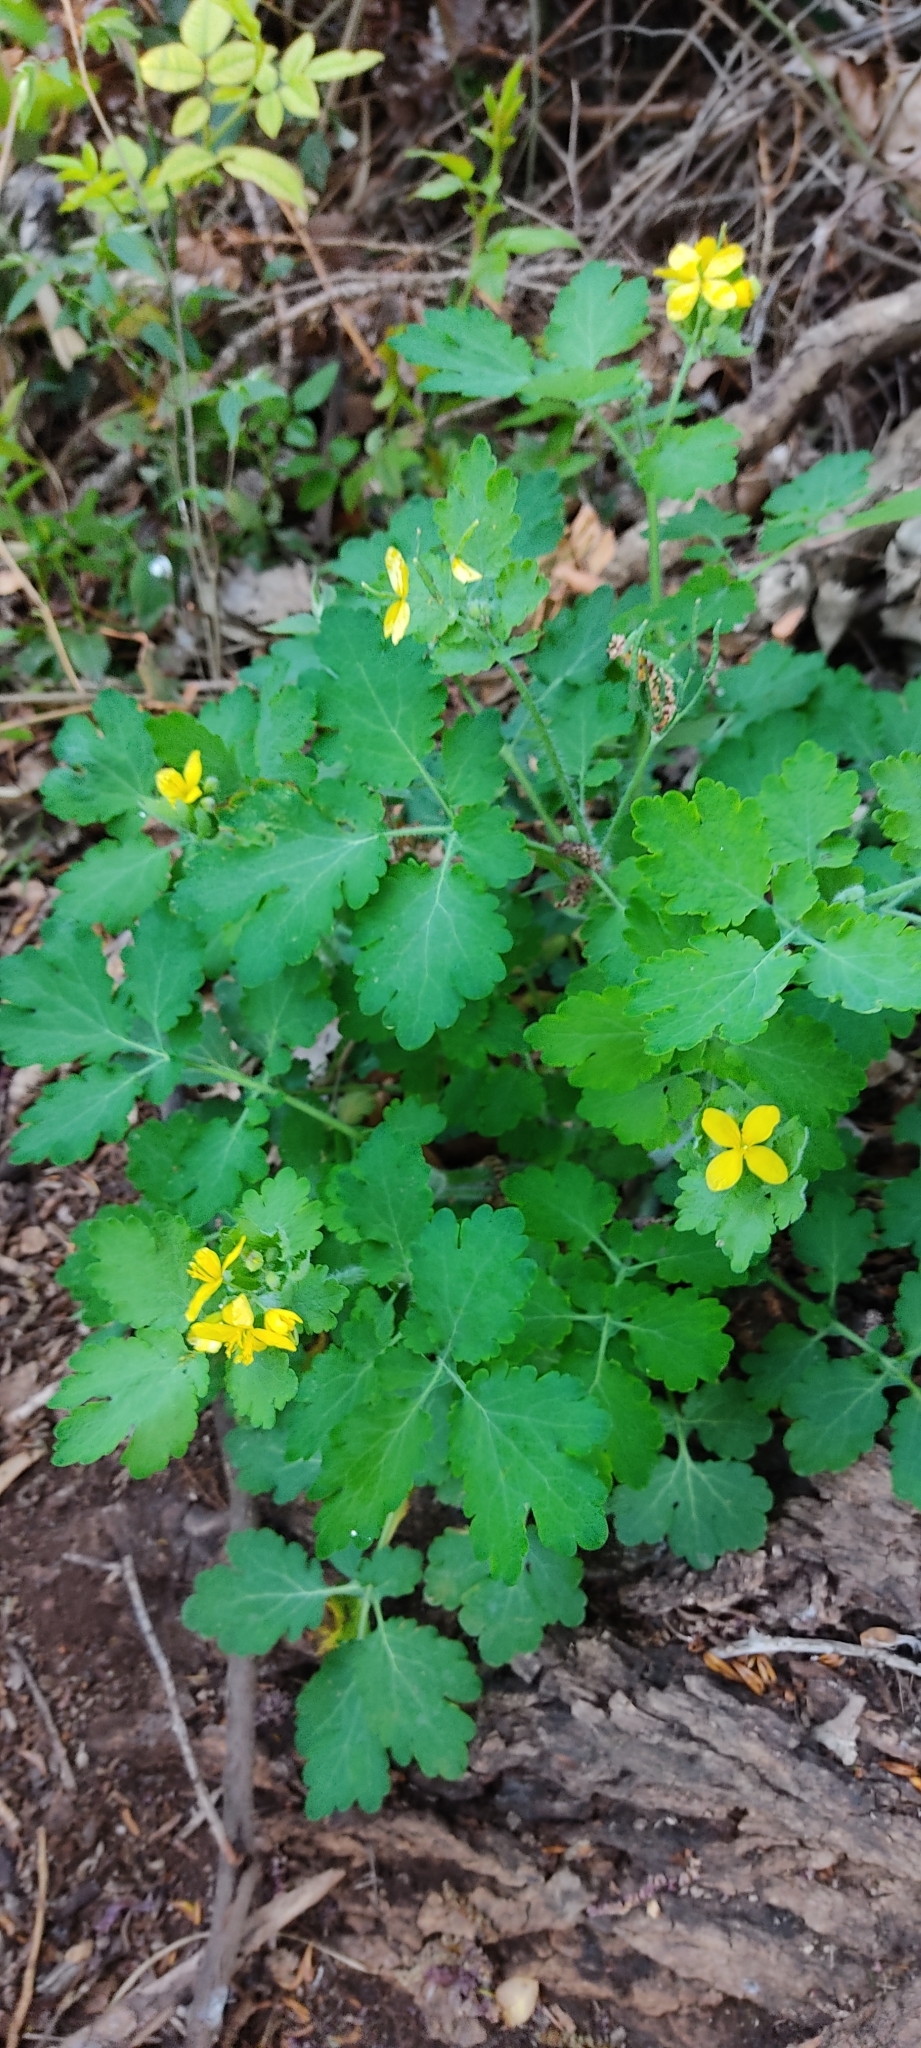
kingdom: Plantae
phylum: Tracheophyta
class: Magnoliopsida
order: Ranunculales
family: Papaveraceae
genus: Chelidonium
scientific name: Chelidonium majus
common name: Greater celandine
